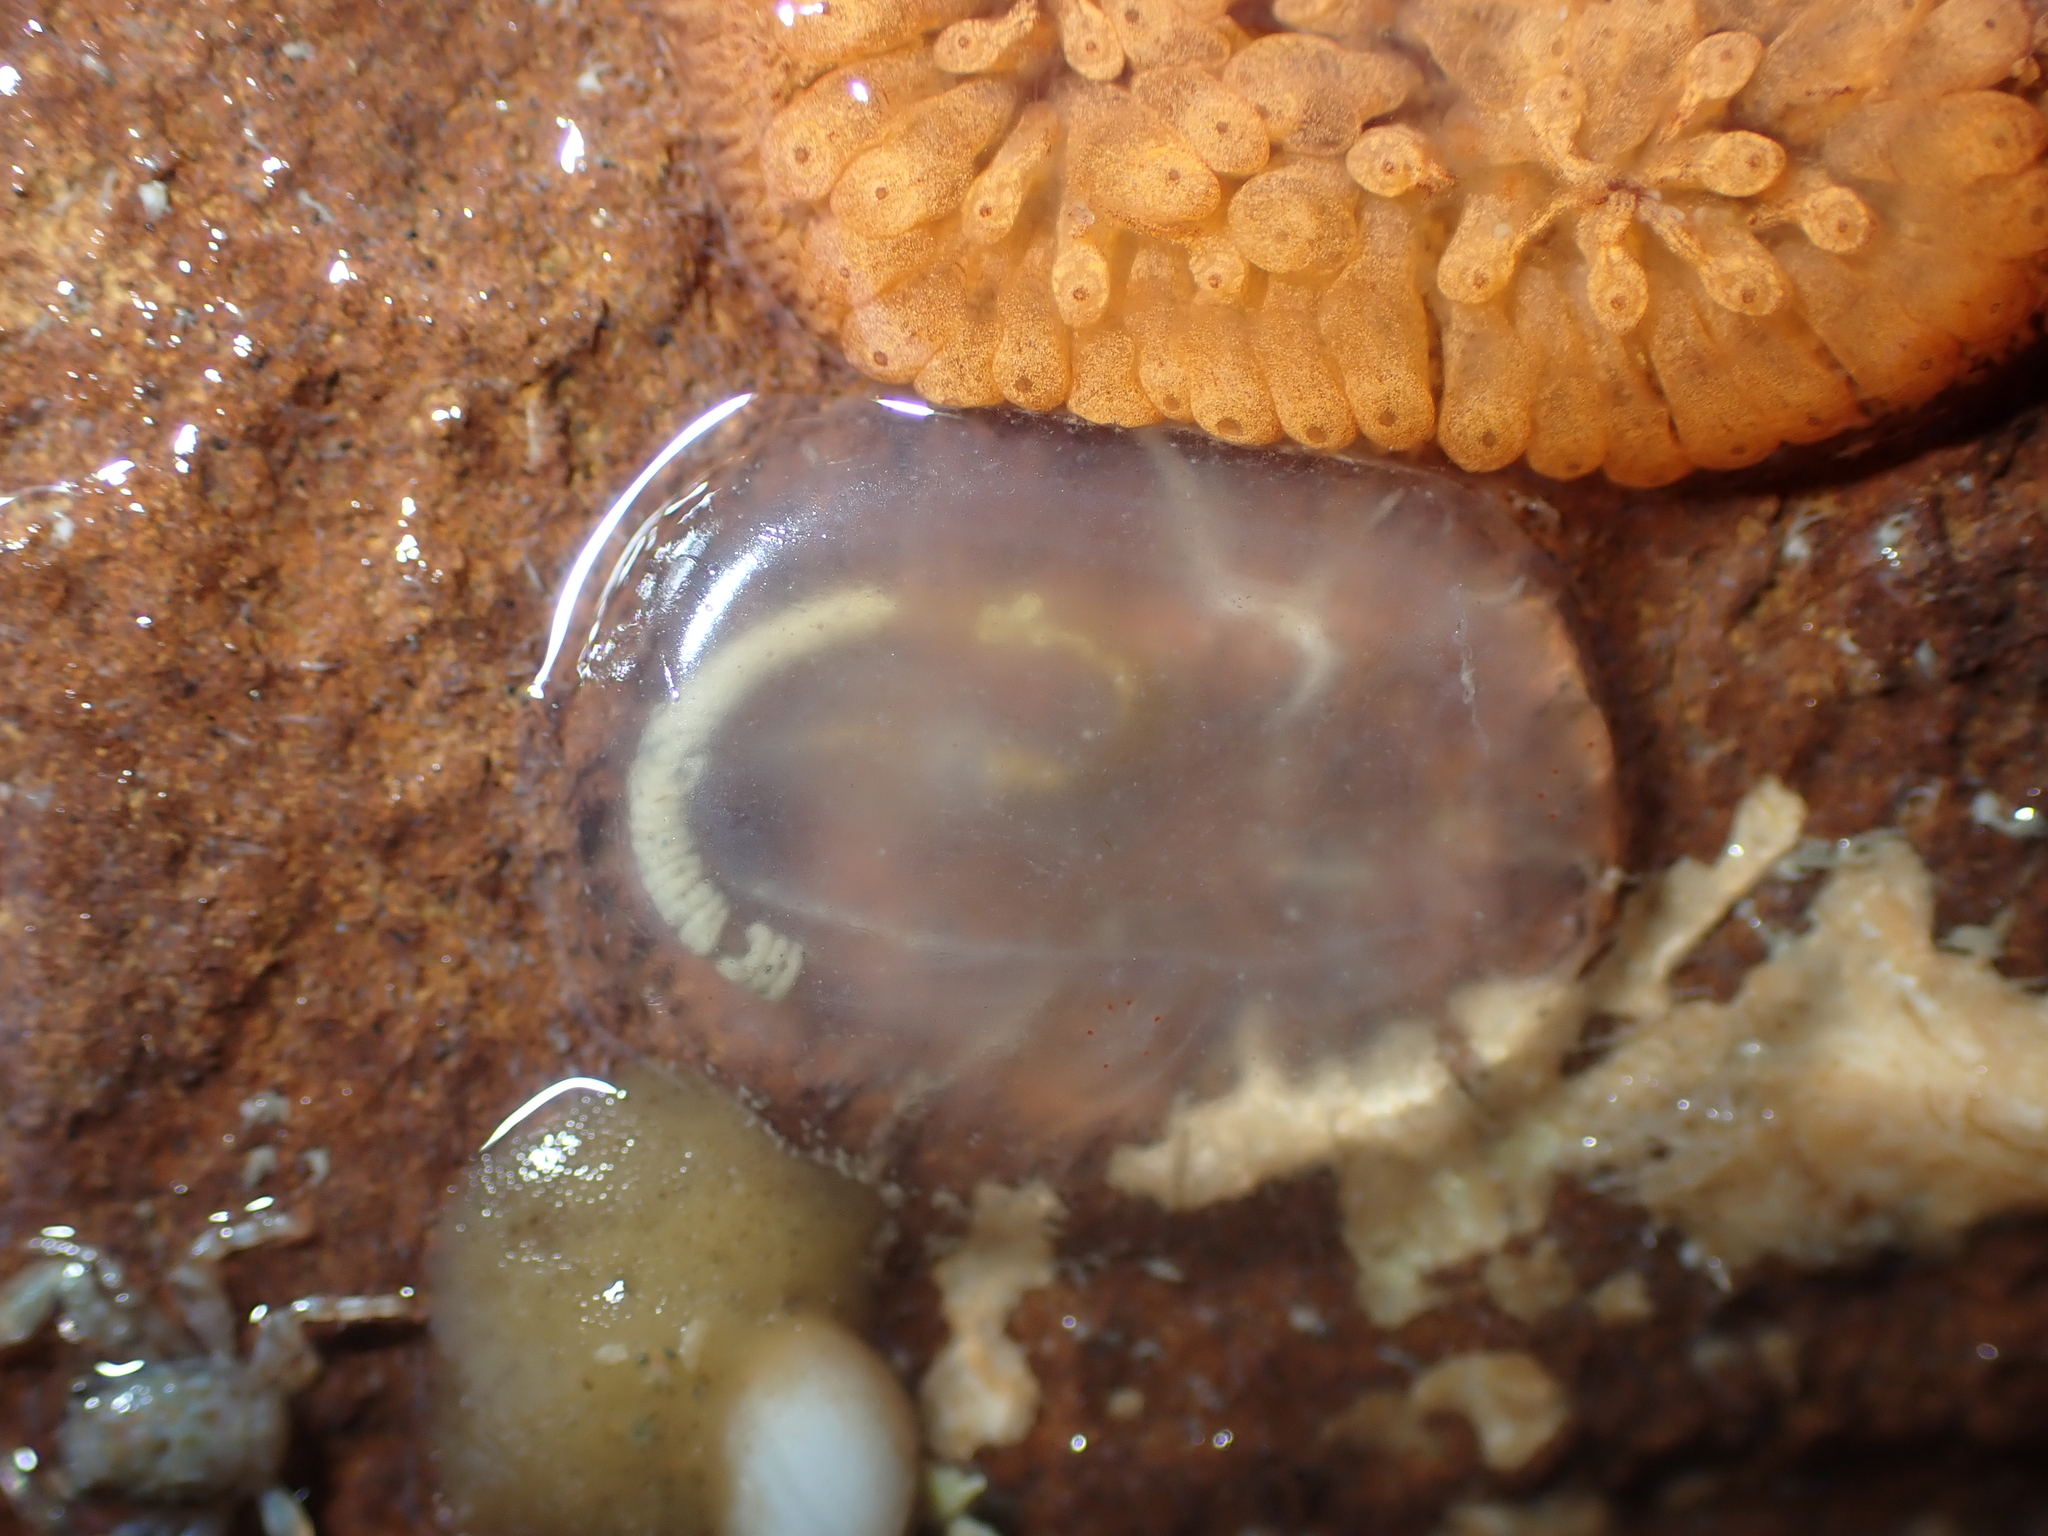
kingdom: Animalia
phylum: Chordata
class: Ascidiacea
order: Phlebobranchia
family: Agneziidae
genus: Agnezia
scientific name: Agnezia glaciata
